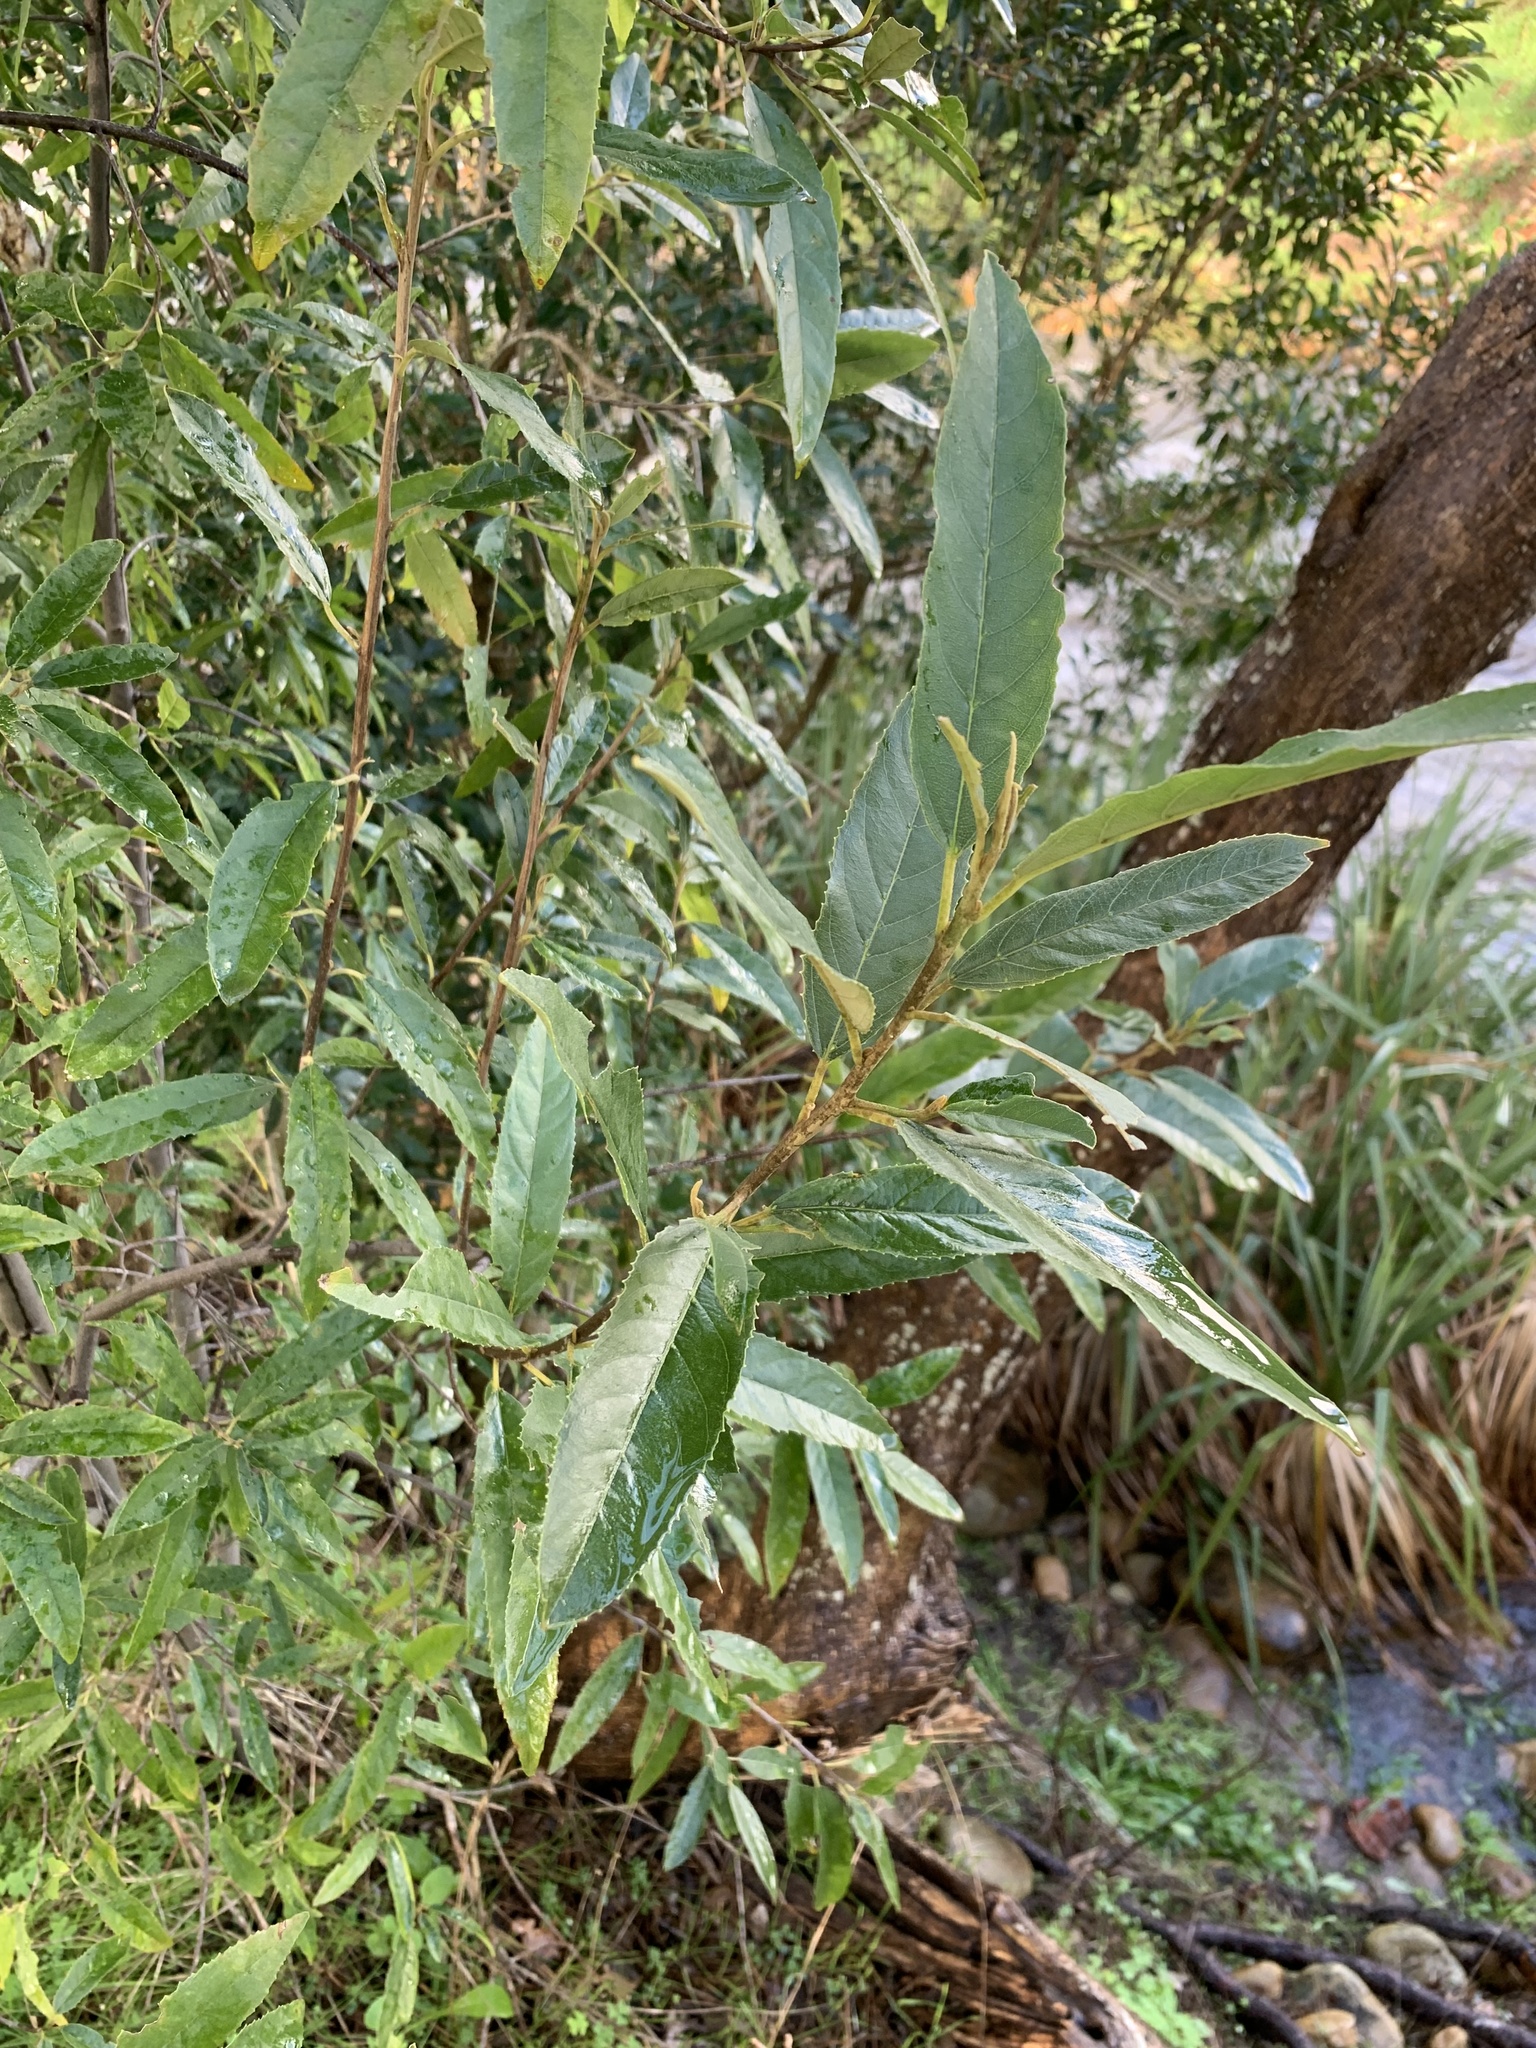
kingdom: Plantae
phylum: Tracheophyta
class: Magnoliopsida
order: Malpighiales
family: Achariaceae
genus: Kiggelaria
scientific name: Kiggelaria africana
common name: Wild peach
